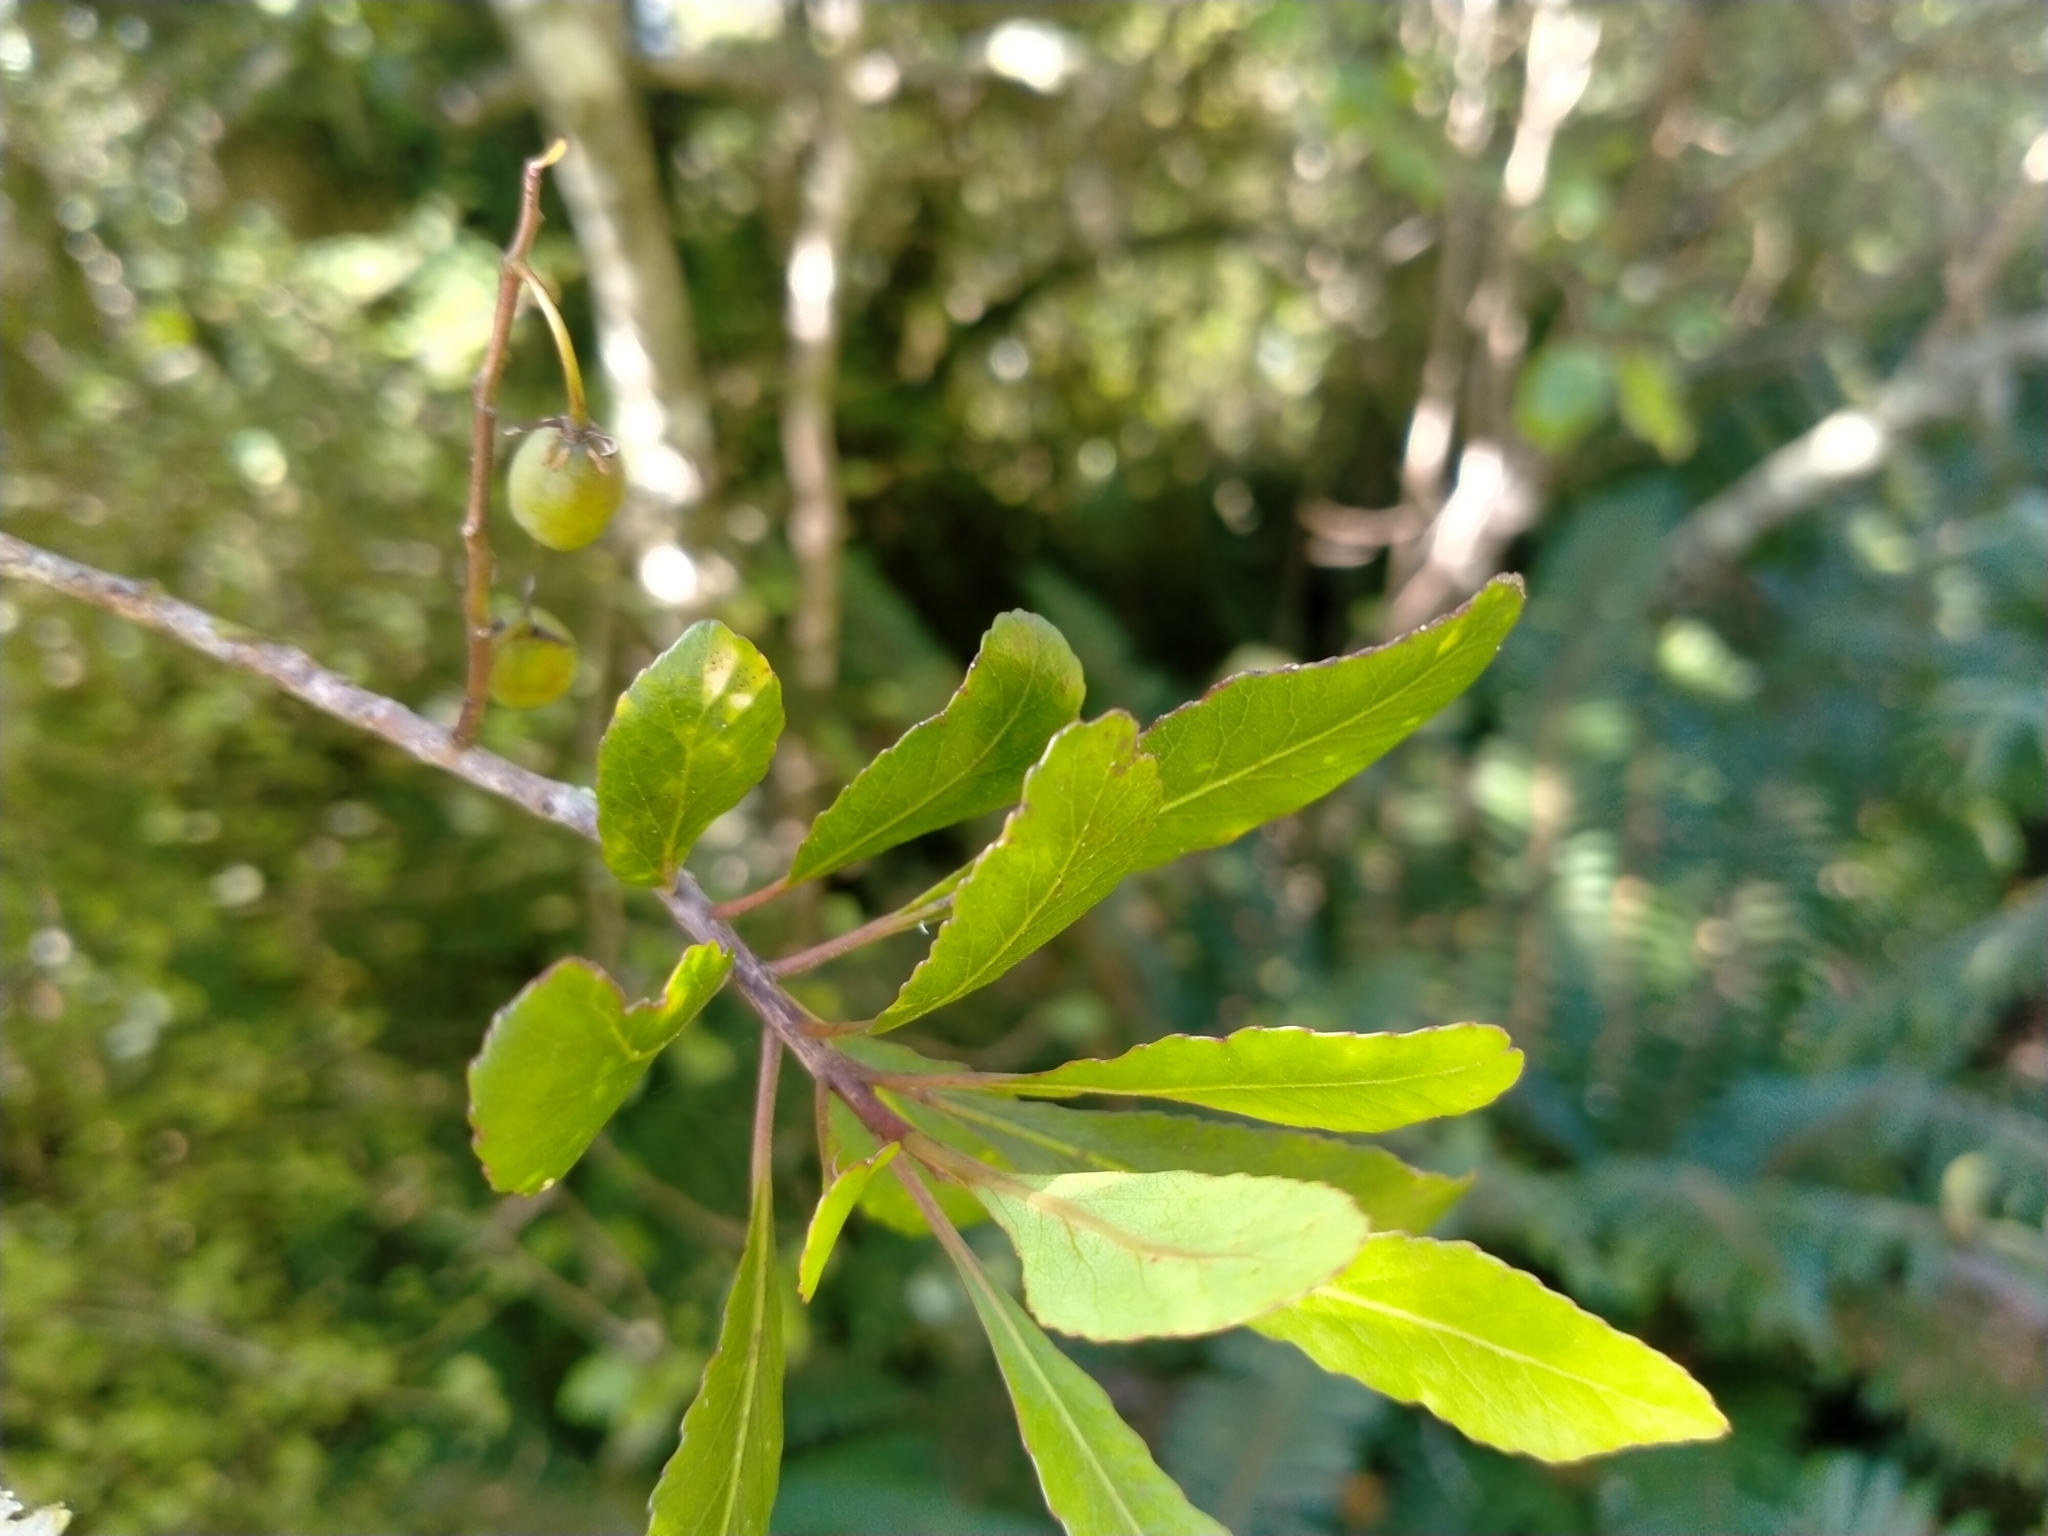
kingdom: Plantae
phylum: Tracheophyta
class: Magnoliopsida
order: Oxalidales
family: Elaeocarpaceae
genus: Elaeocarpus
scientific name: Elaeocarpus hookerianus
